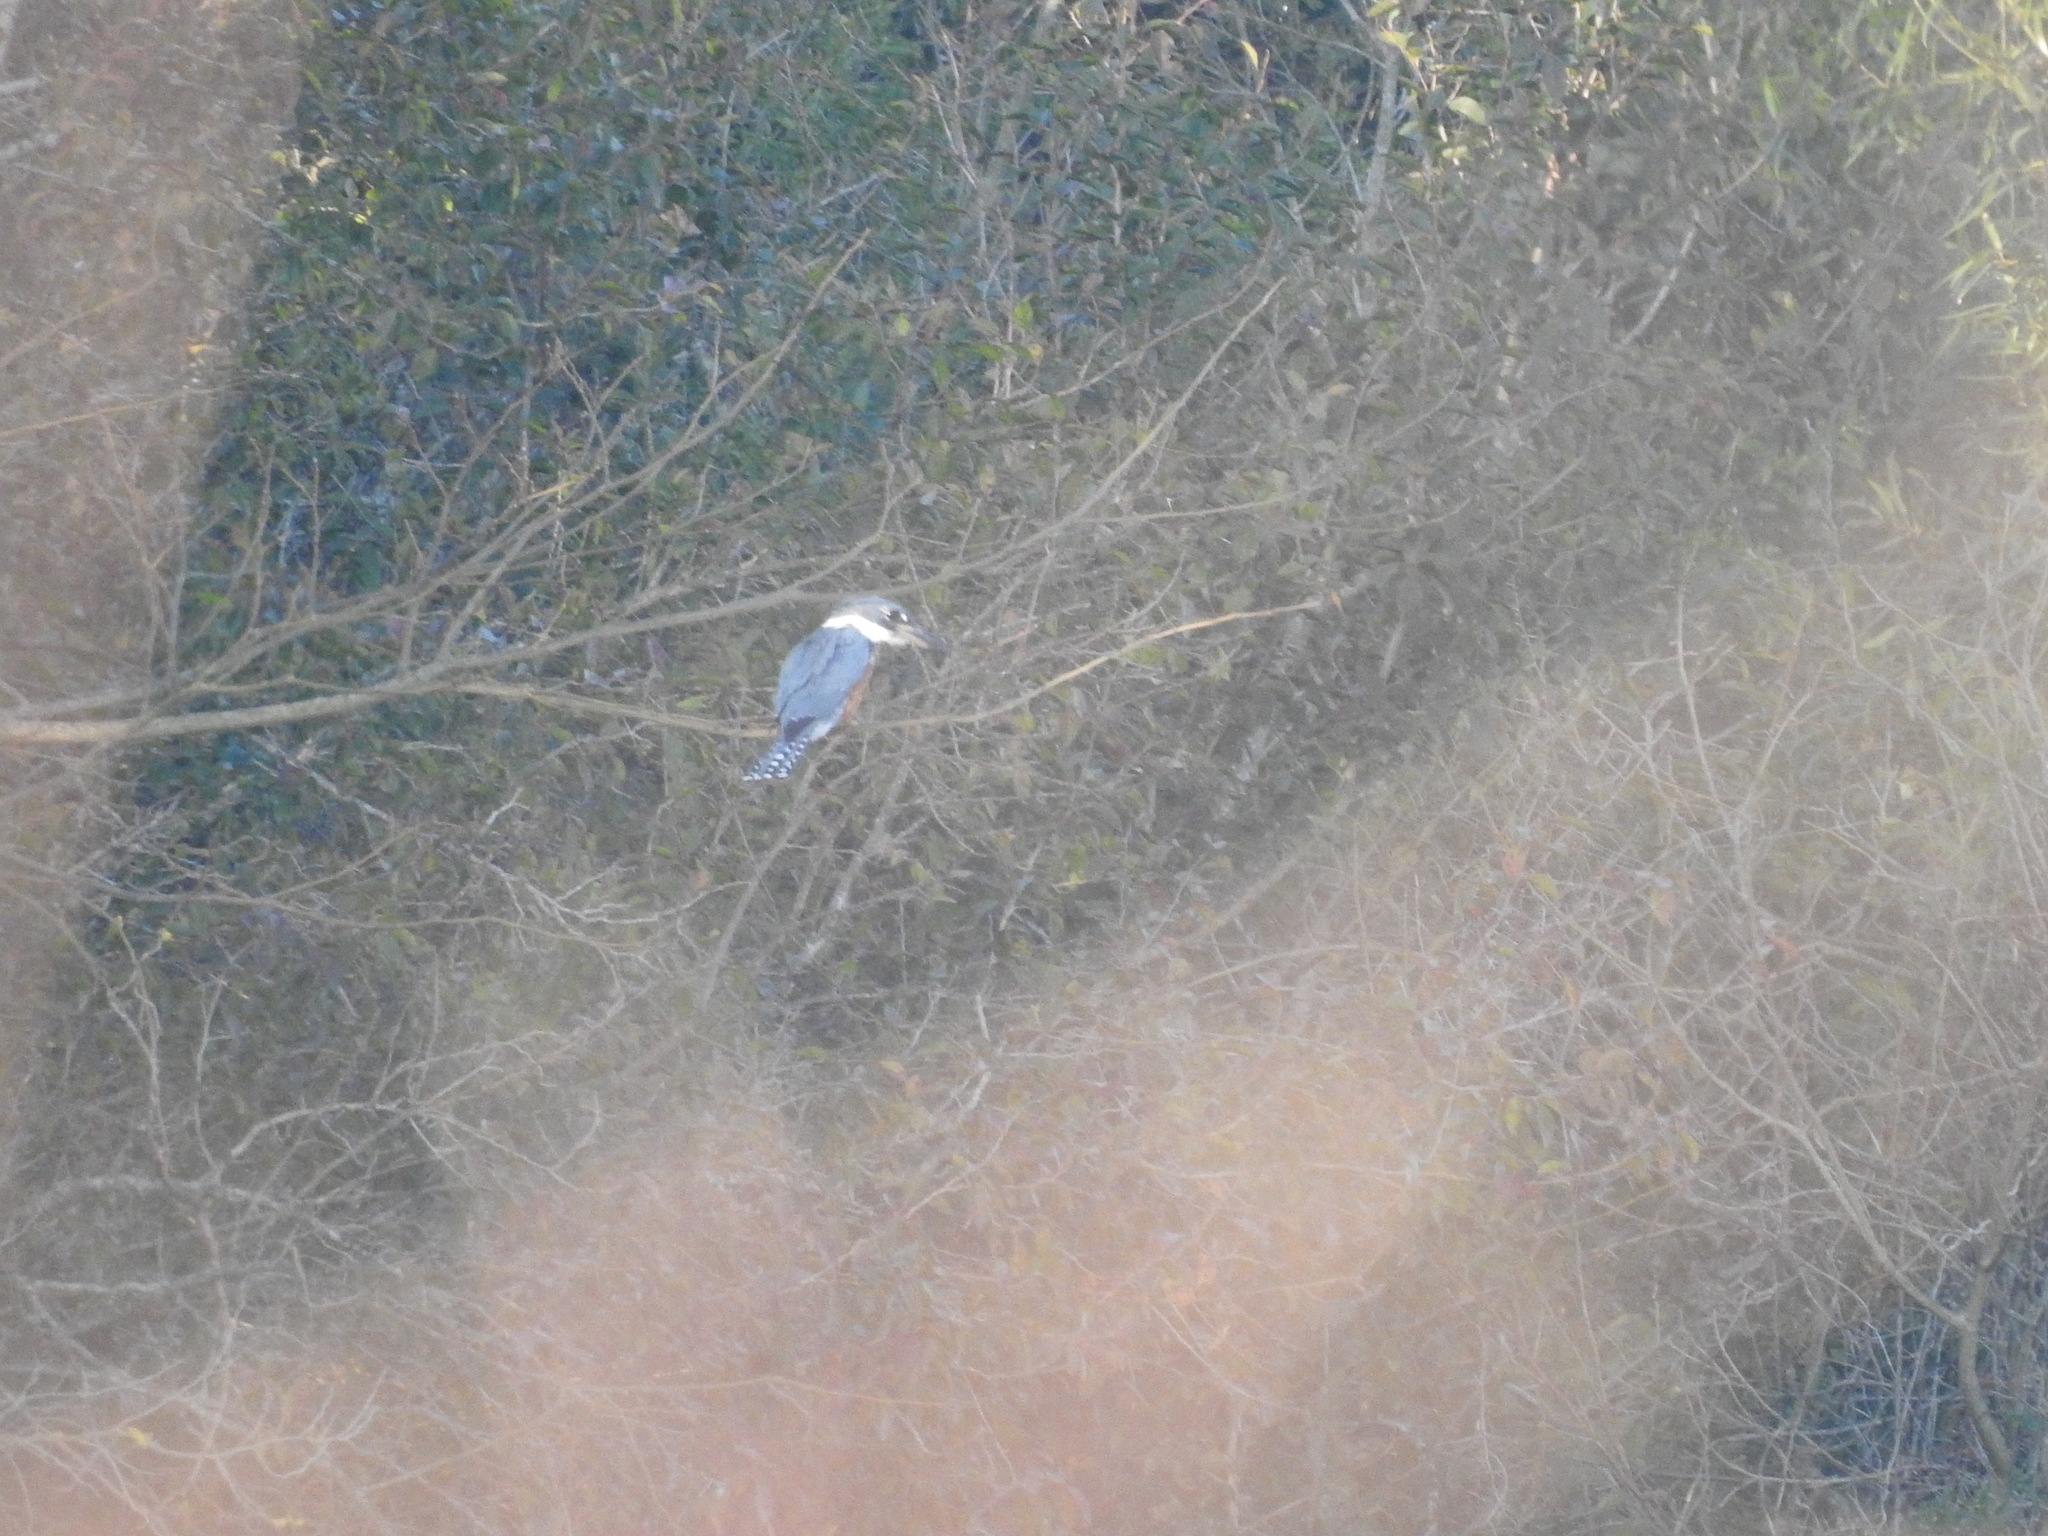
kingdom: Animalia
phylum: Chordata
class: Aves
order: Coraciiformes
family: Alcedinidae
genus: Megaceryle
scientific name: Megaceryle torquata
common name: Ringed kingfisher
